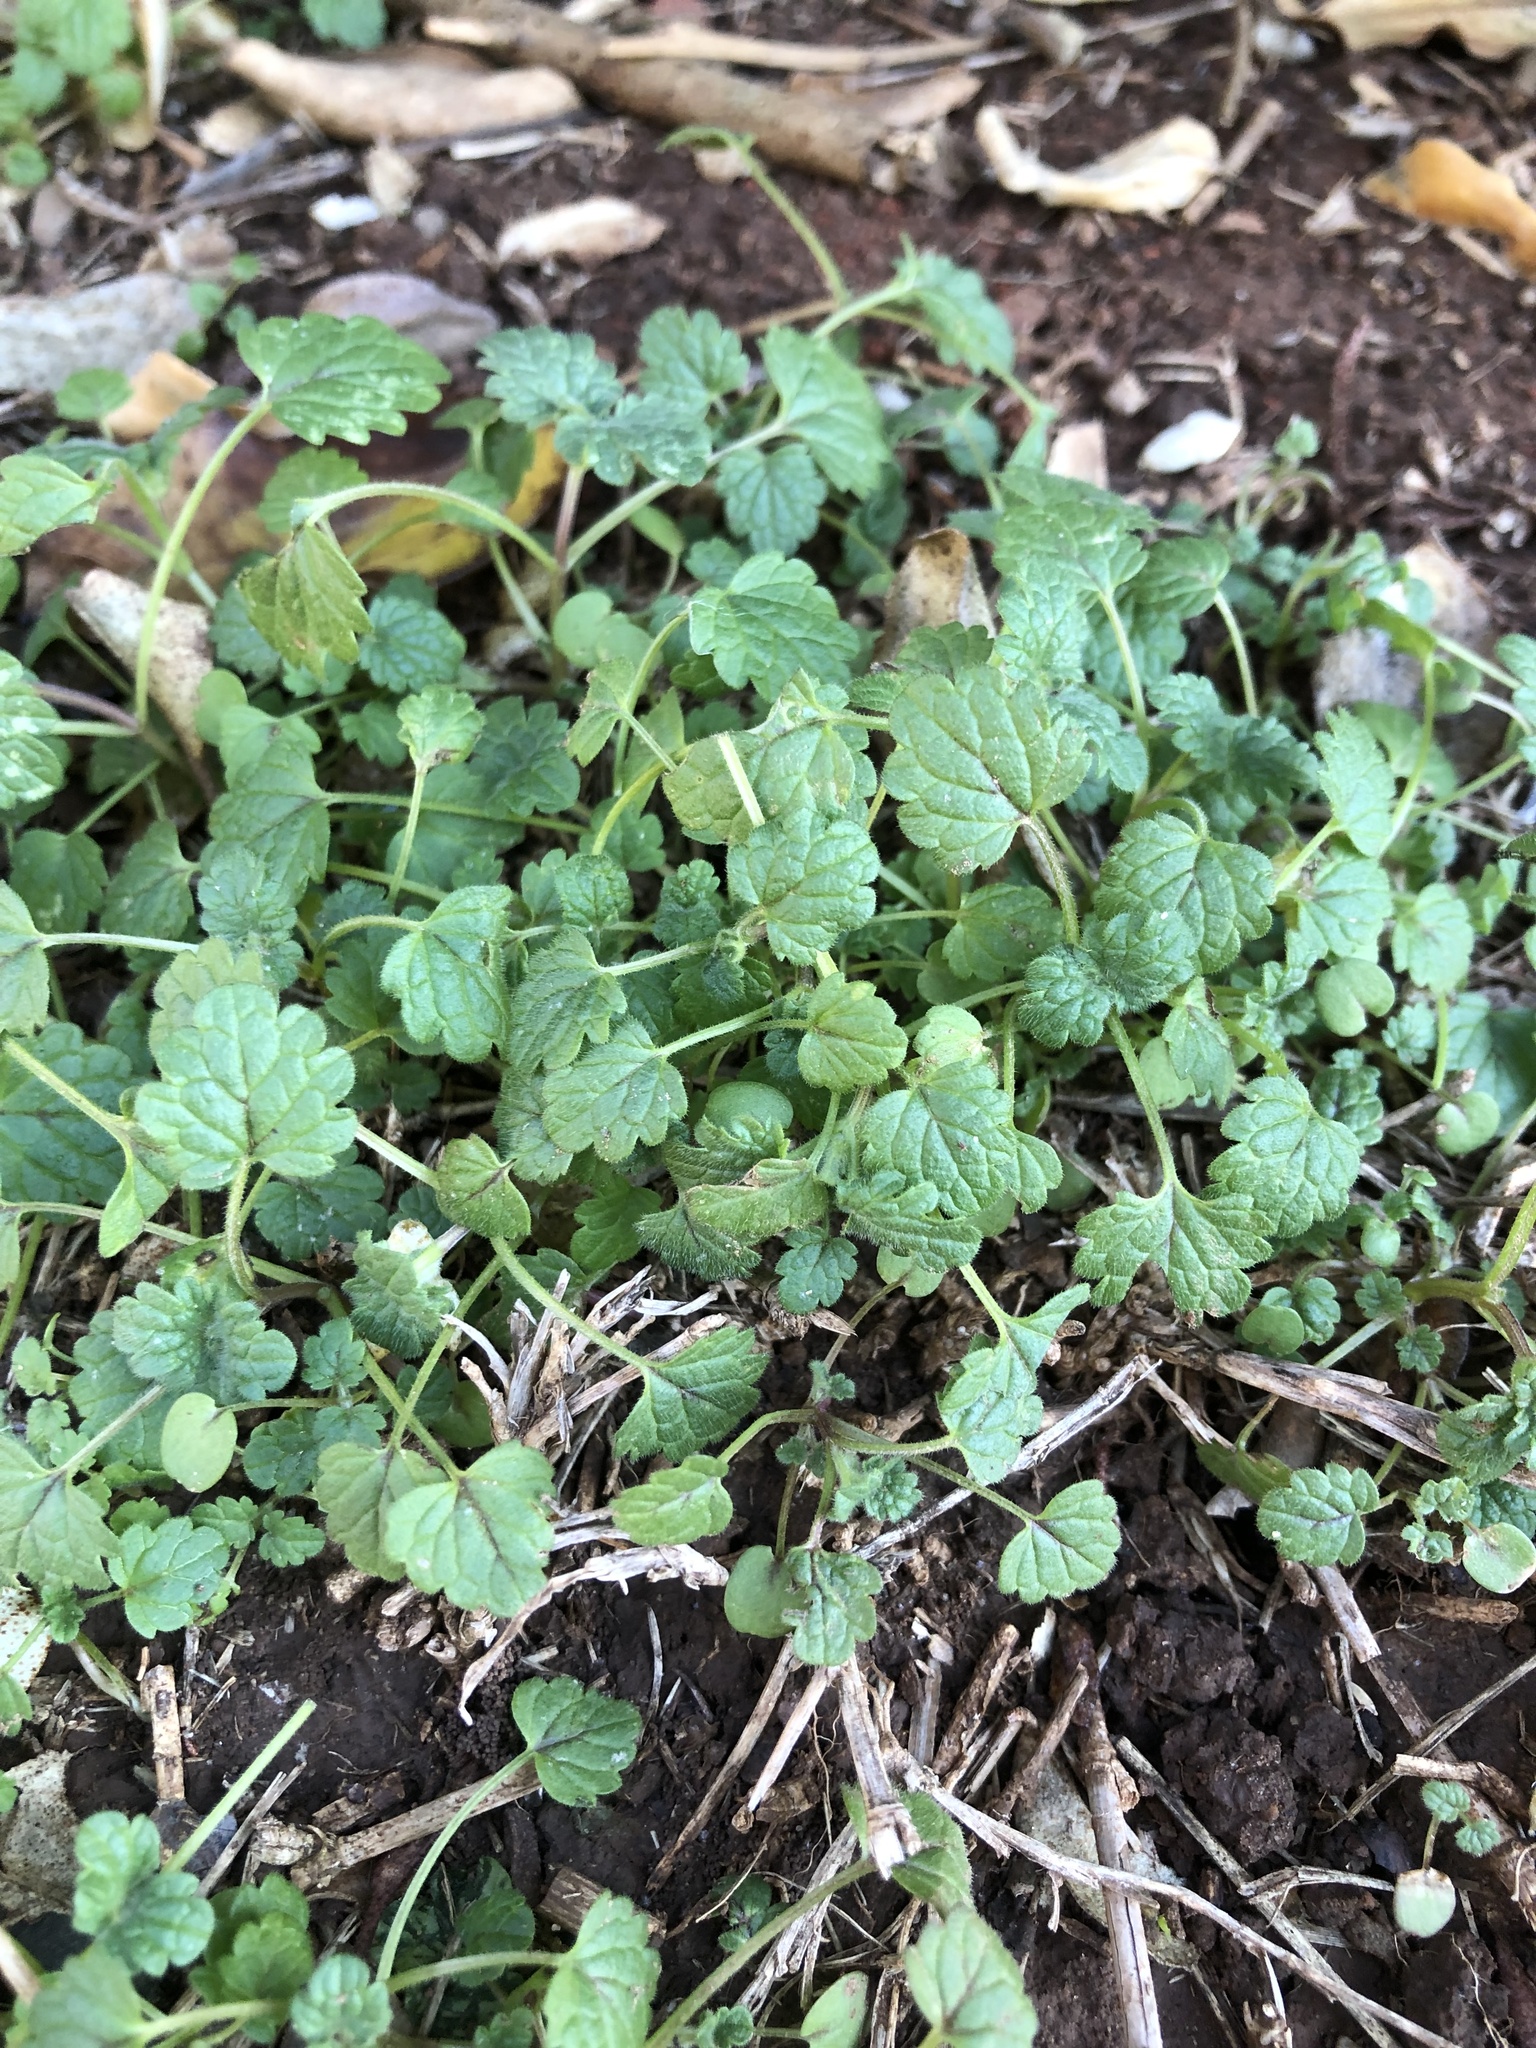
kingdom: Plantae
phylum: Tracheophyta
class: Magnoliopsida
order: Lamiales
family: Lamiaceae
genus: Lamium
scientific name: Lamium amplexicaule
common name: Henbit dead-nettle
